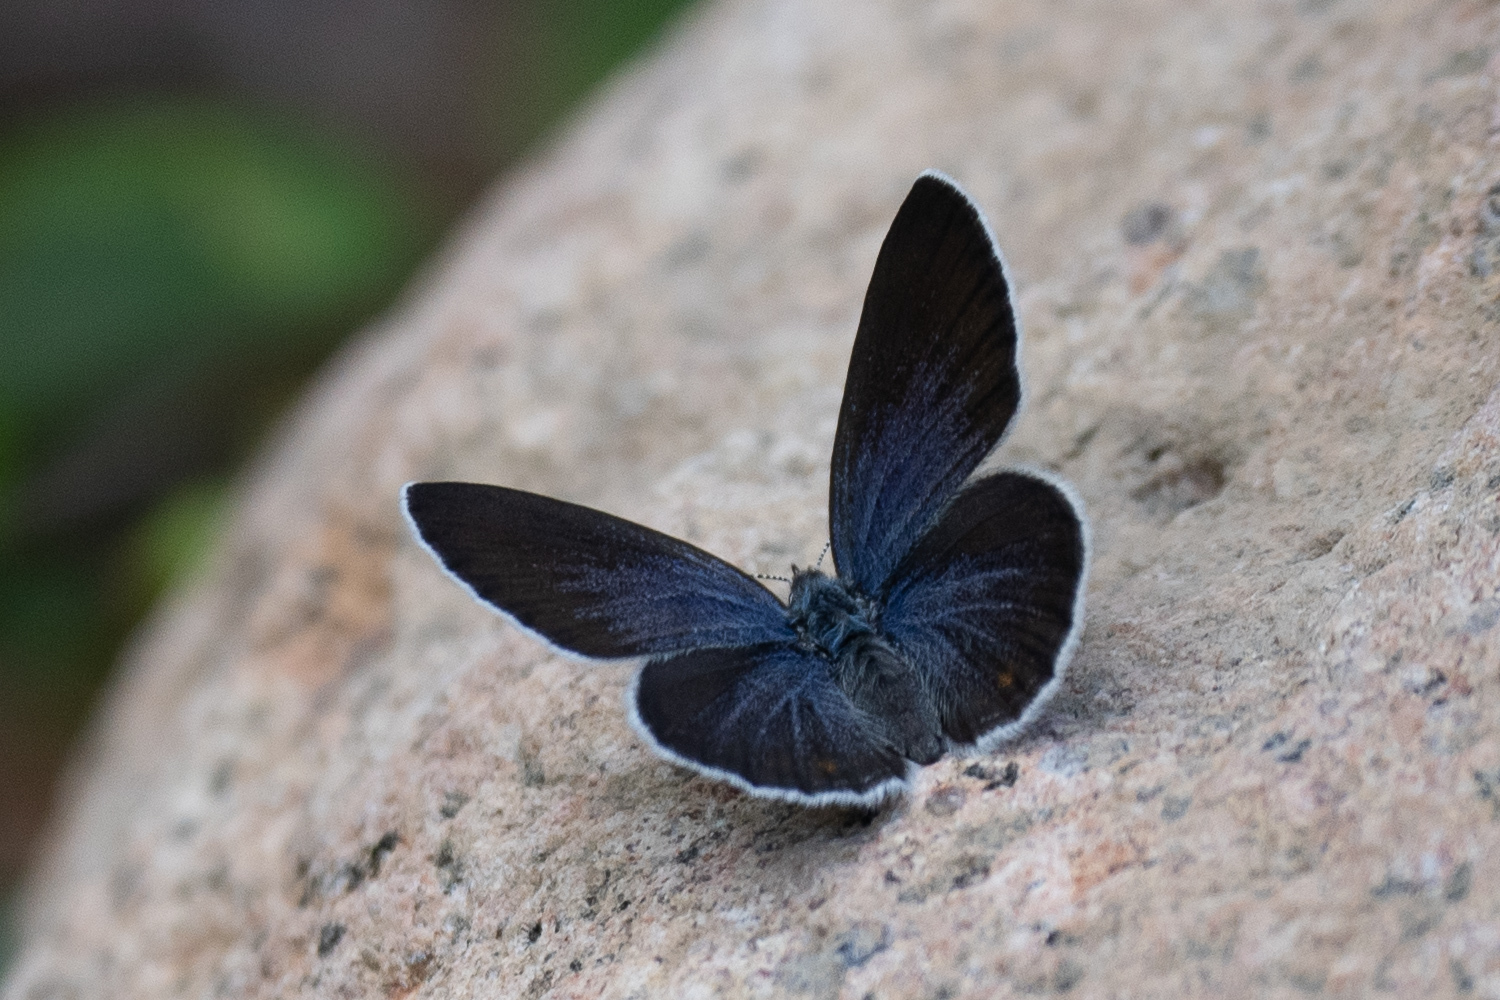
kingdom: Animalia
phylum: Arthropoda
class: Insecta
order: Lepidoptera
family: Lycaenidae
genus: Vacciniina
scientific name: Vacciniina optilete
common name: Cranberry blue
